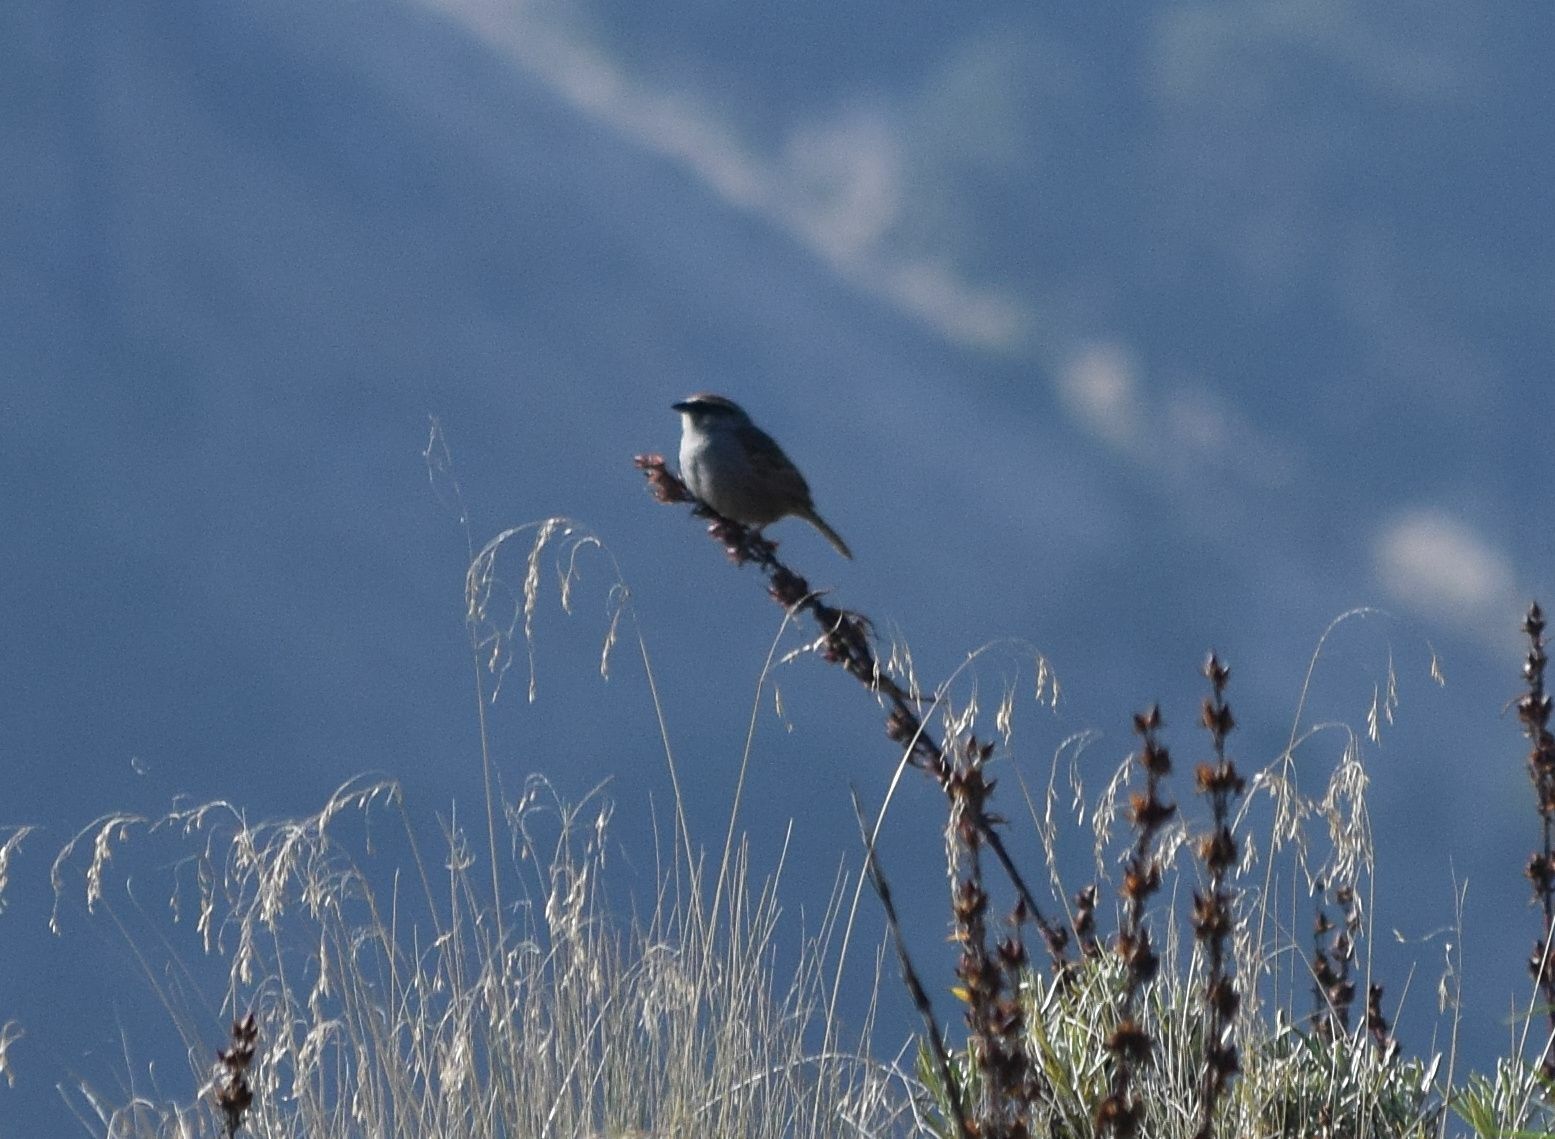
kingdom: Animalia
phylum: Chordata
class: Aves
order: Passeriformes
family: Passerellidae
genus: Oriturus
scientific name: Oriturus superciliosus
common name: Striped sparrow
